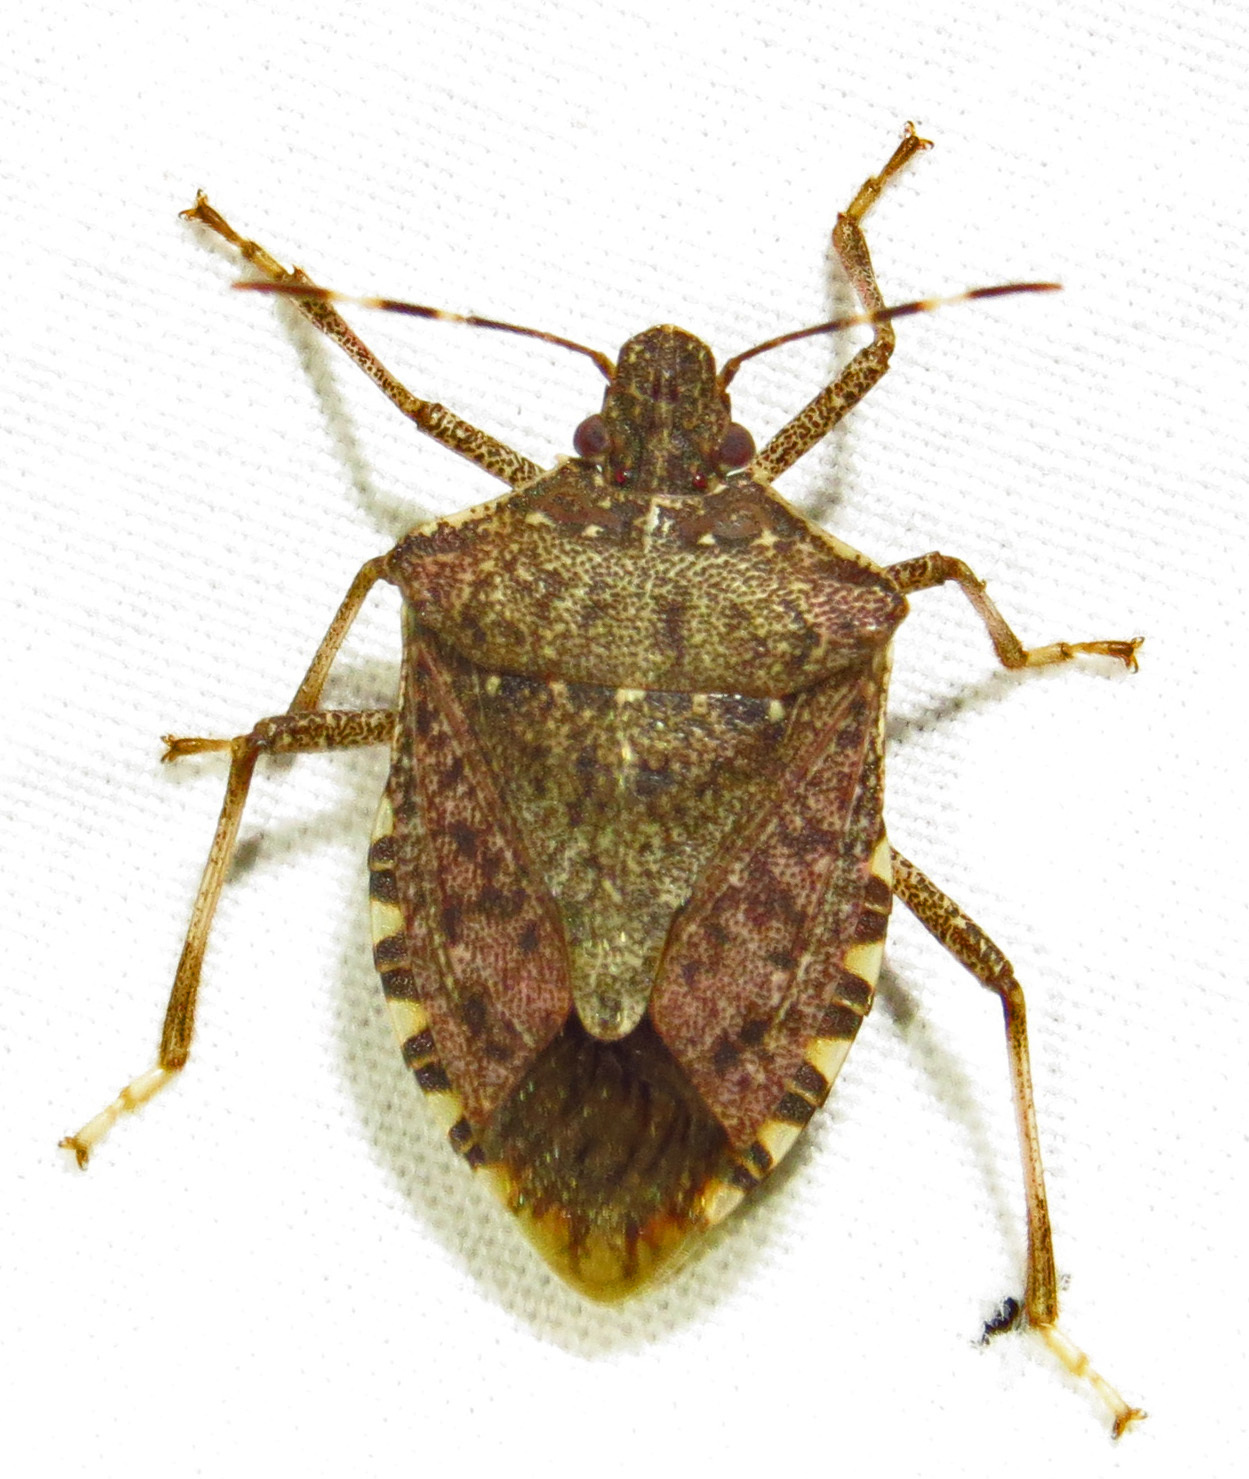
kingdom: Animalia
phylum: Arthropoda
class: Insecta
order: Hemiptera
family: Pentatomidae
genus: Halyomorpha
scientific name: Halyomorpha halys
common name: Brown marmorated stink bug
